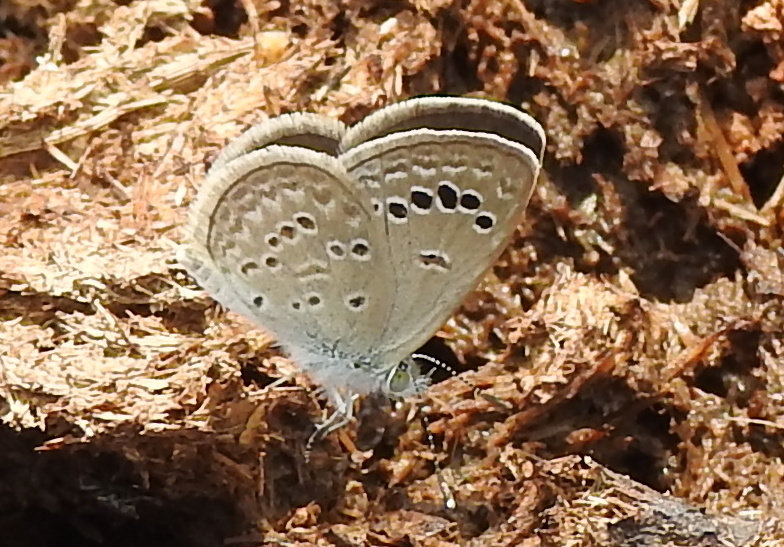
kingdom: Animalia
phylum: Arthropoda
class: Insecta
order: Lepidoptera
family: Lycaenidae
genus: Zizina
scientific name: Zizina otis
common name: Lesser grass blue
